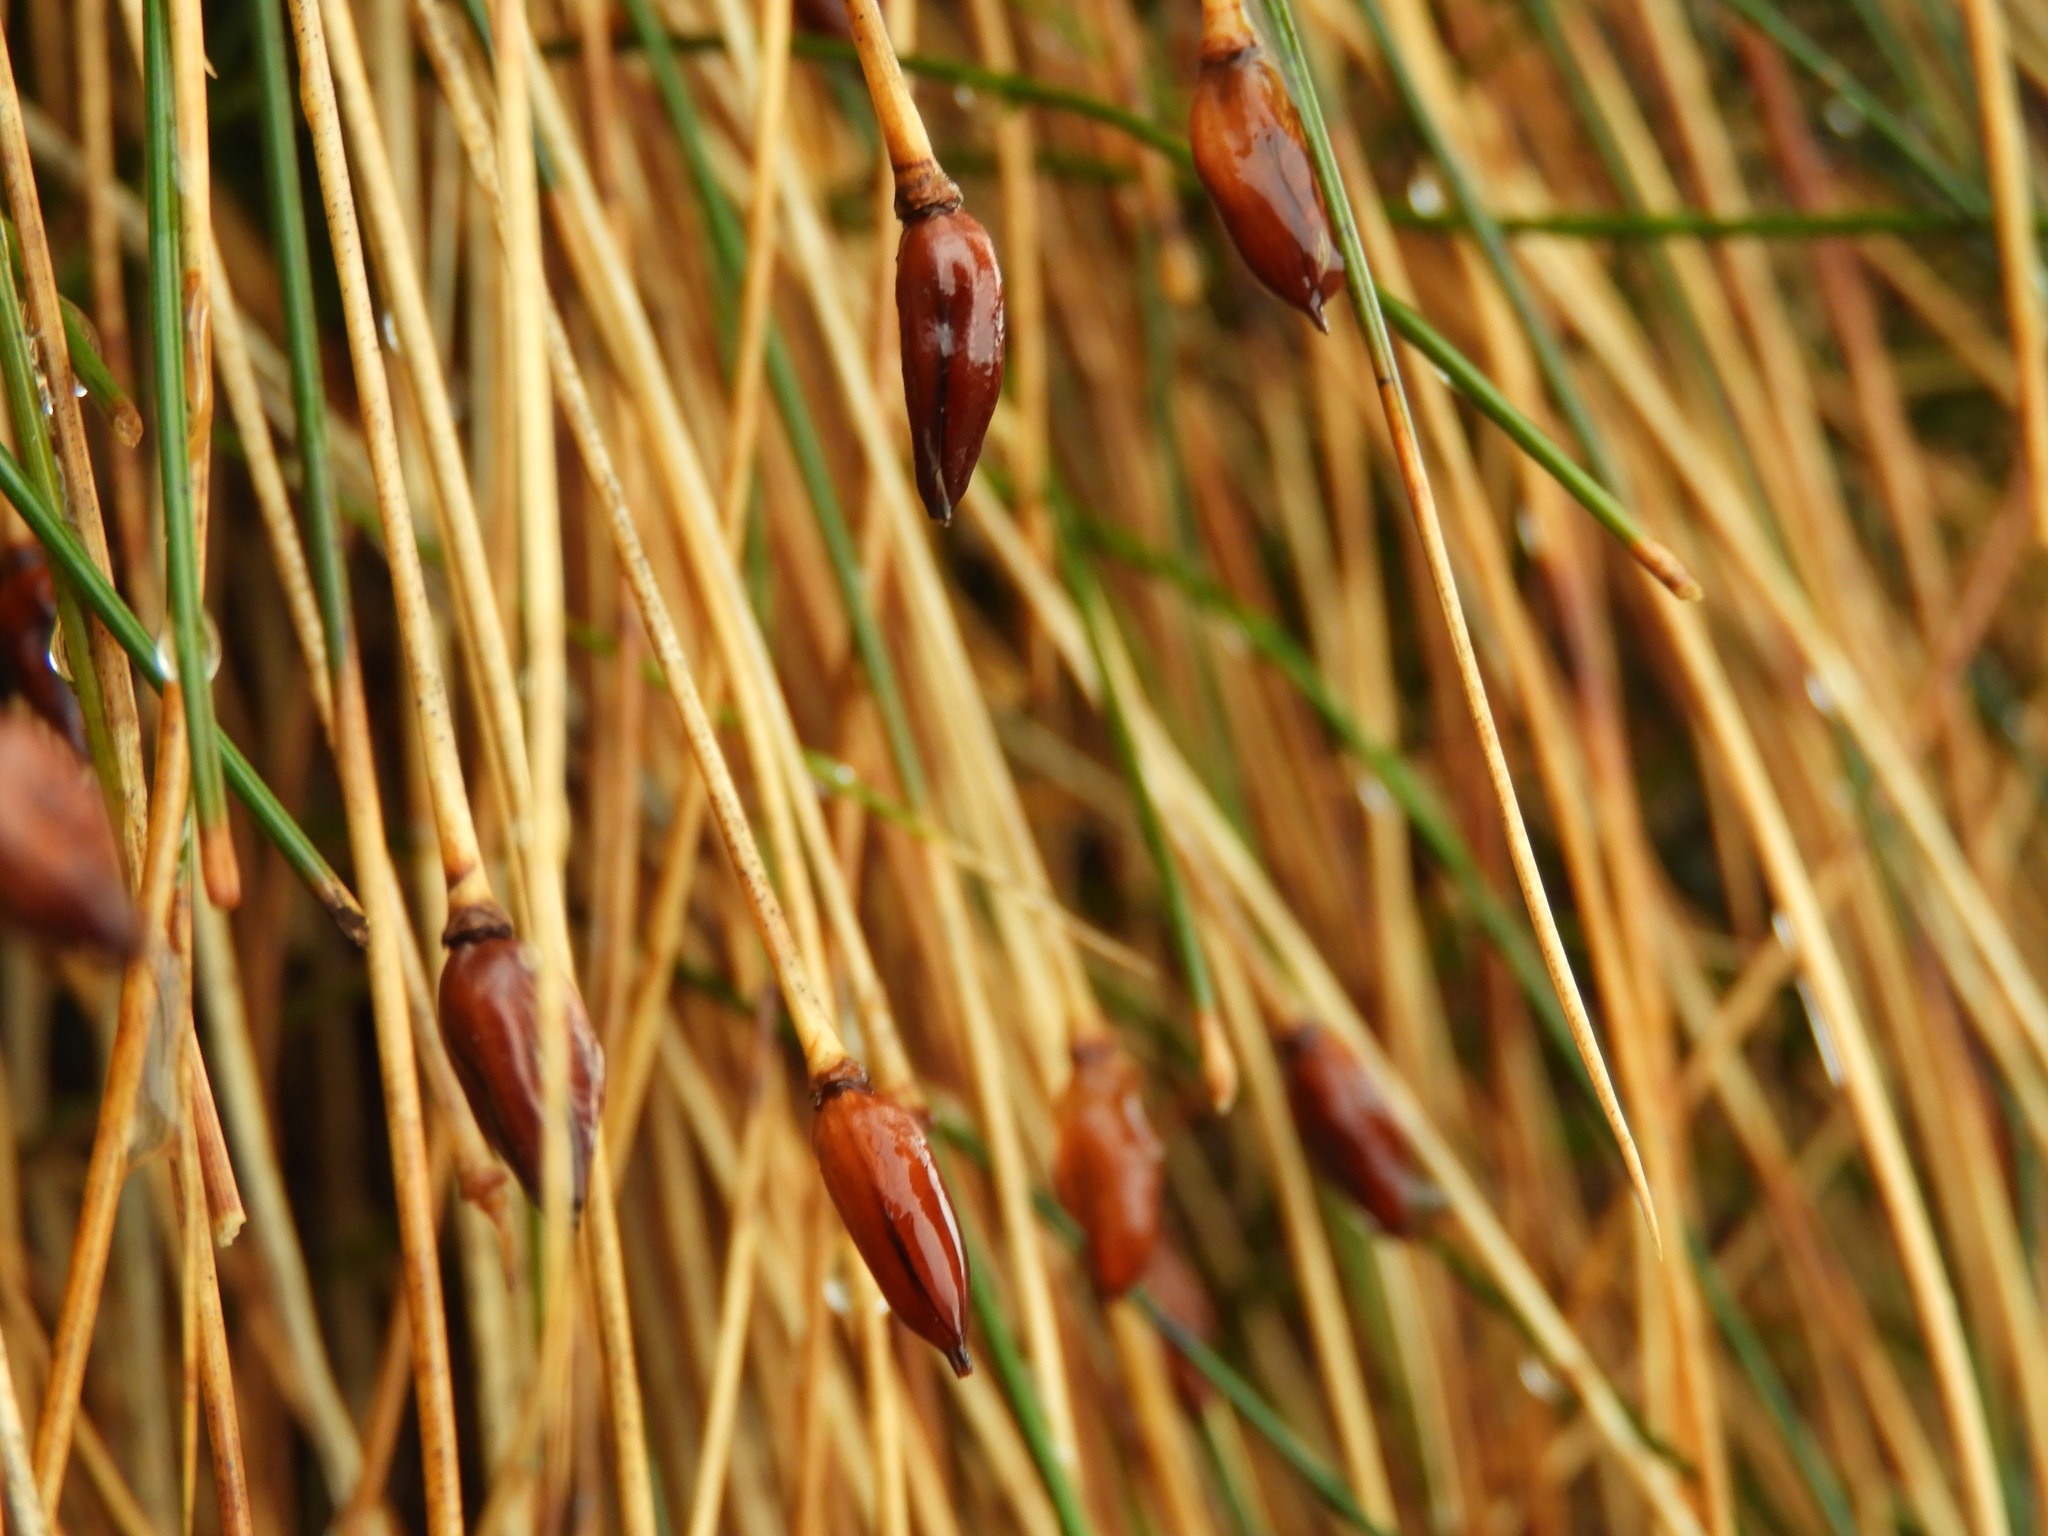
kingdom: Plantae
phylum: Tracheophyta
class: Liliopsida
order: Poales
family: Juncaceae
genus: Marsippospermum
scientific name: Marsippospermum gracile
